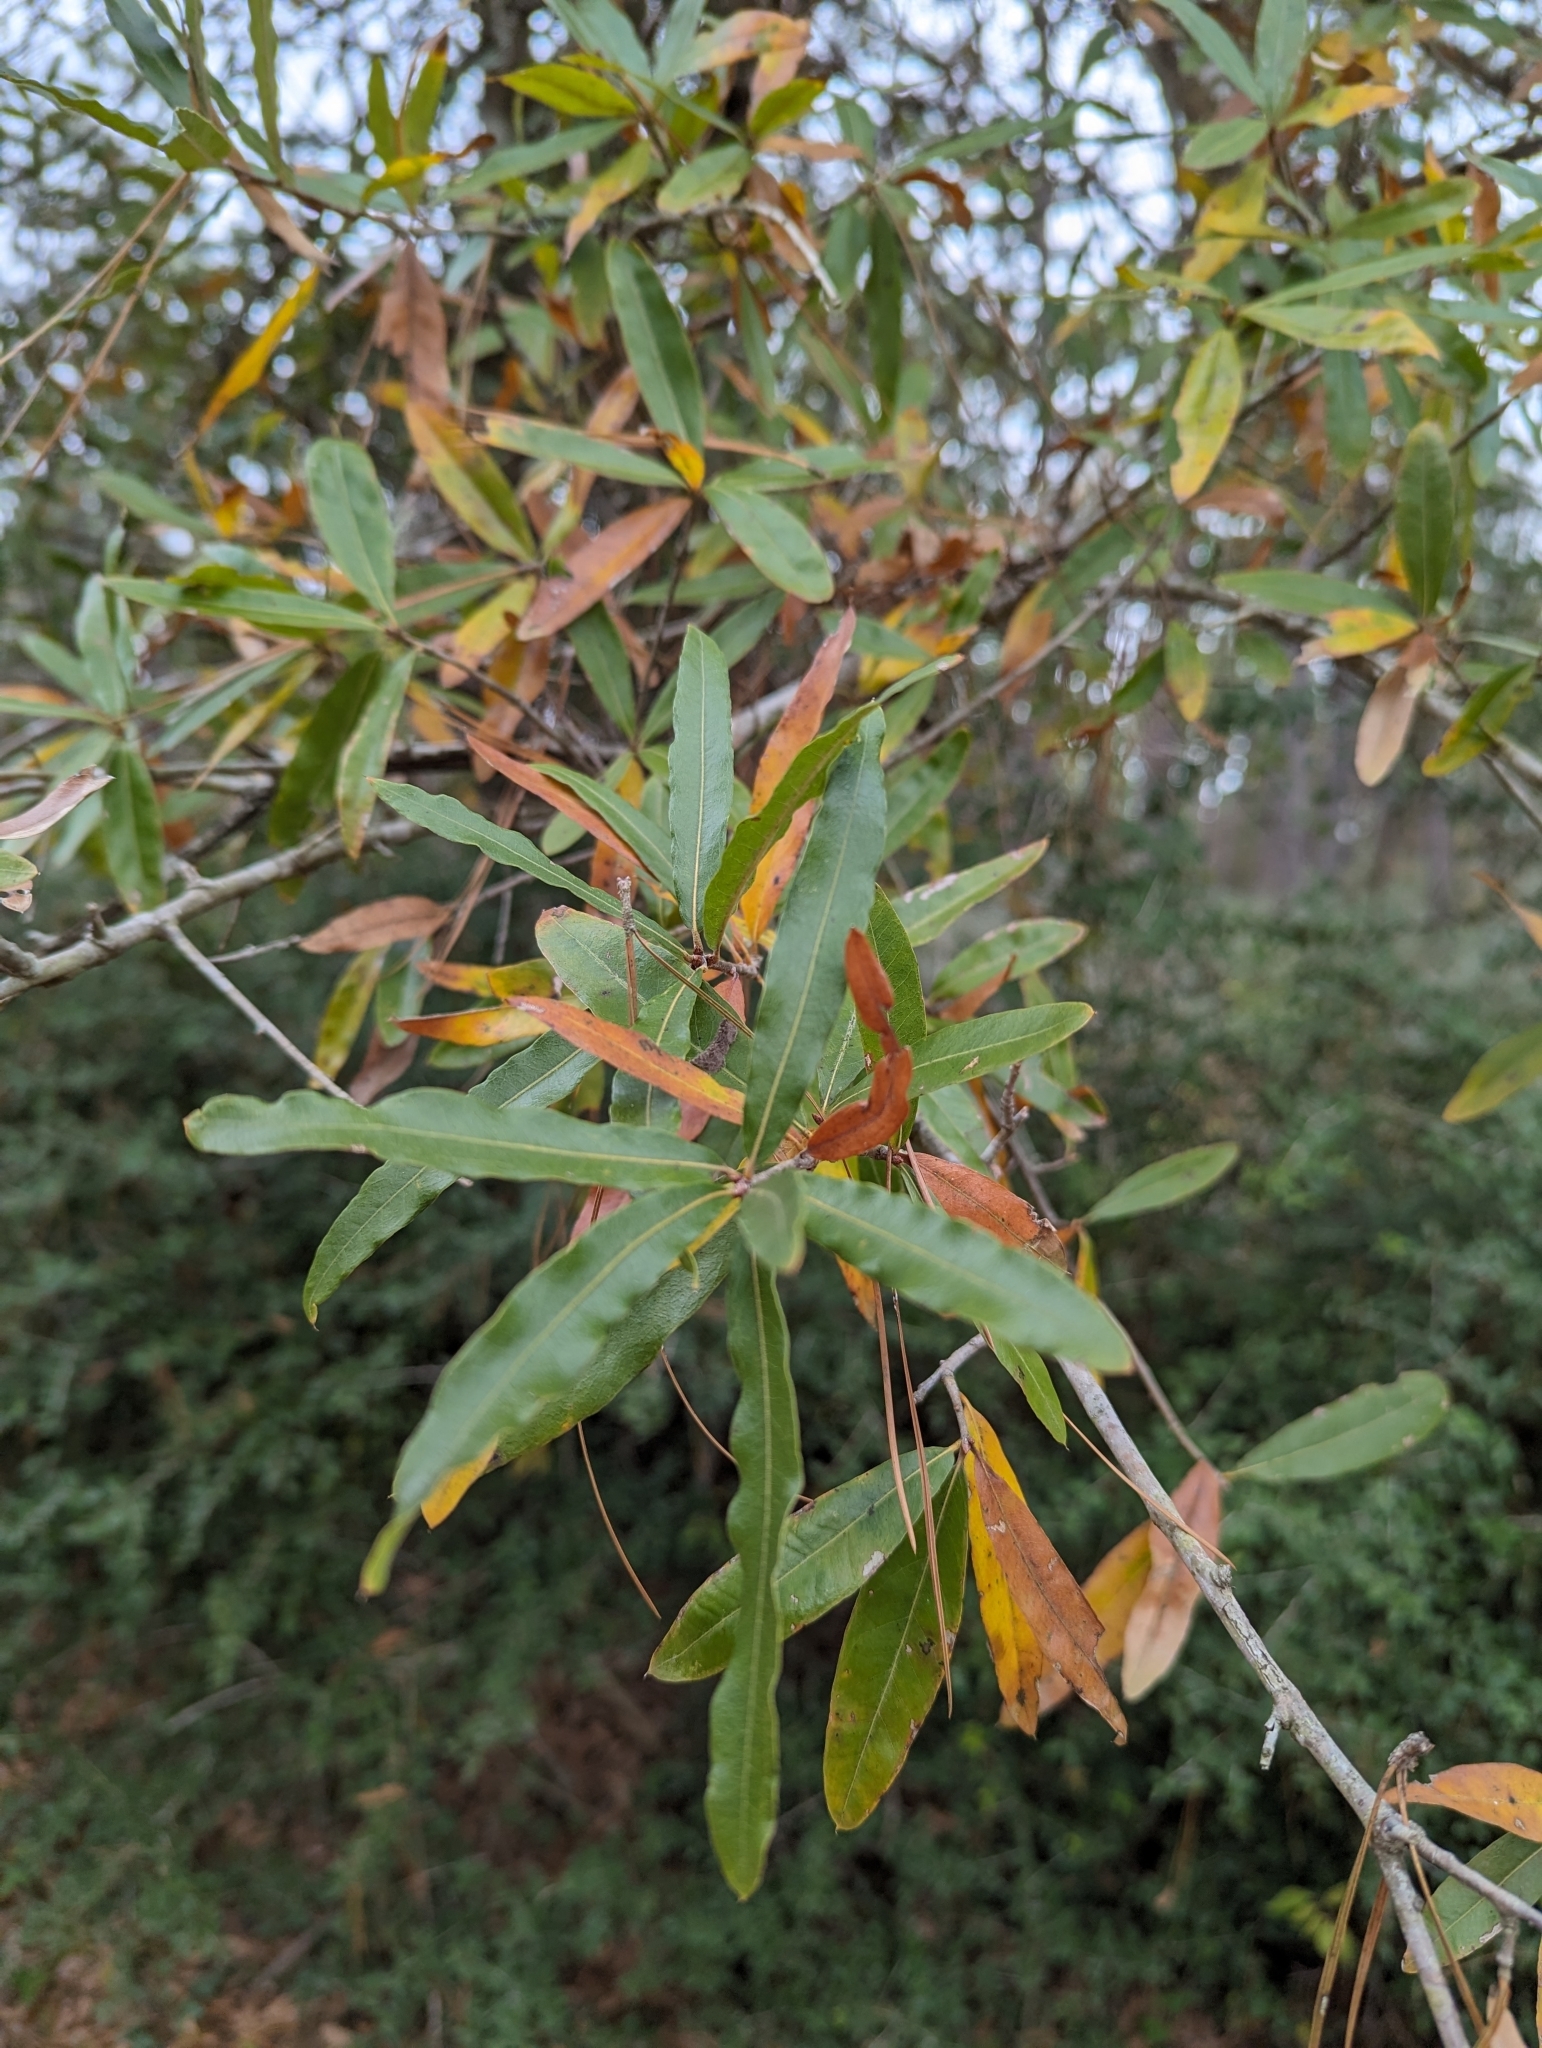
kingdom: Plantae
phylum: Tracheophyta
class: Magnoliopsida
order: Fagales
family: Fagaceae
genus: Quercus
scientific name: Quercus phellos
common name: Willow oak
